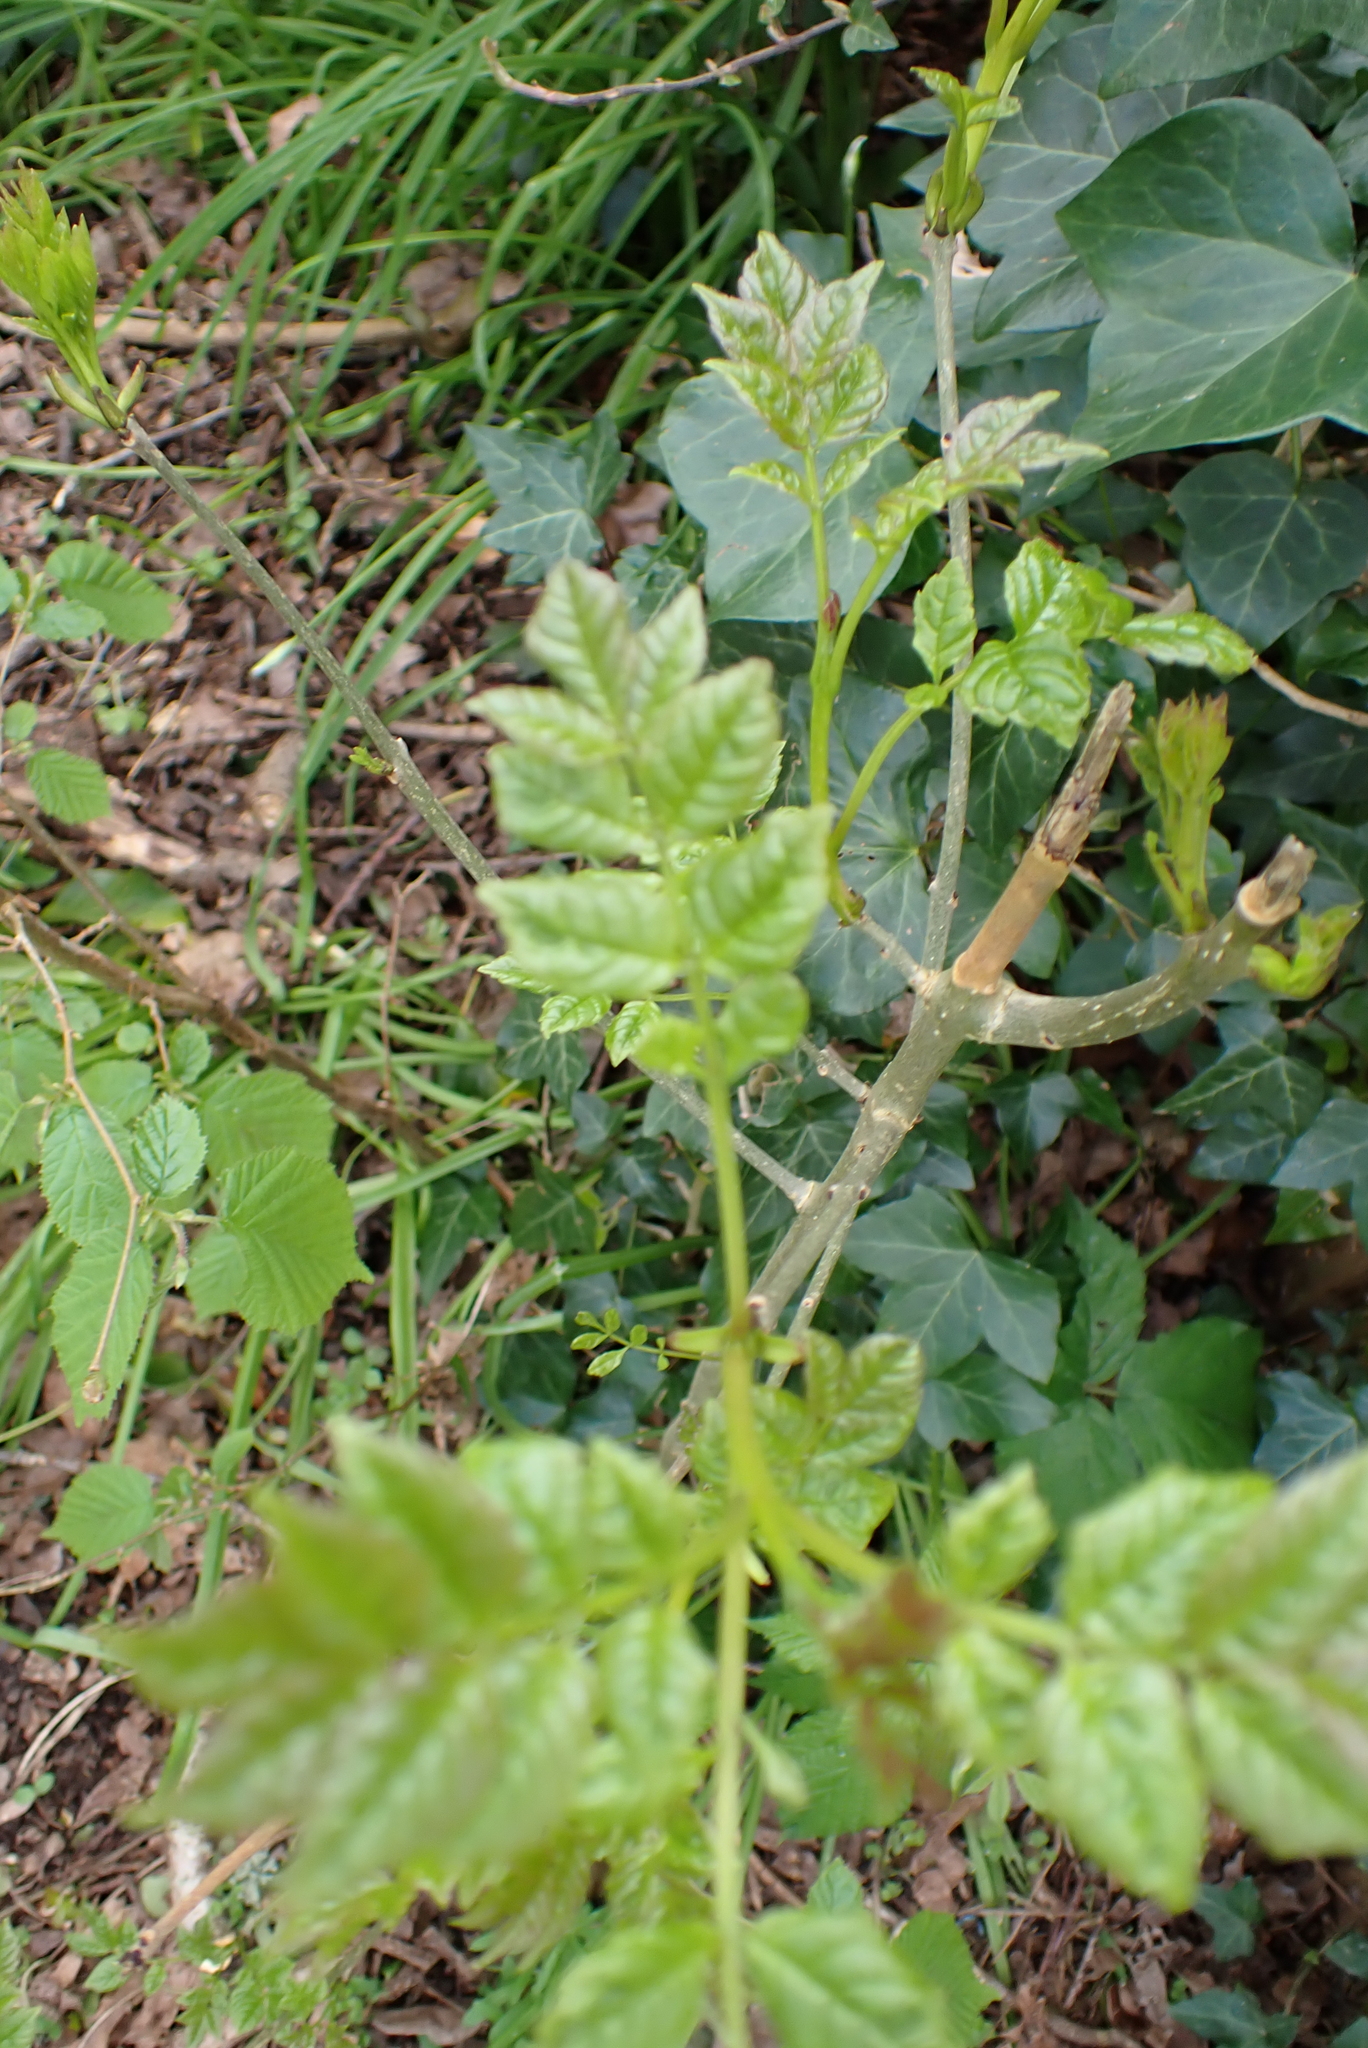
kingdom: Plantae
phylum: Tracheophyta
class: Magnoliopsida
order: Lamiales
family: Oleaceae
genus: Fraxinus
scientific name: Fraxinus excelsior
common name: European ash
